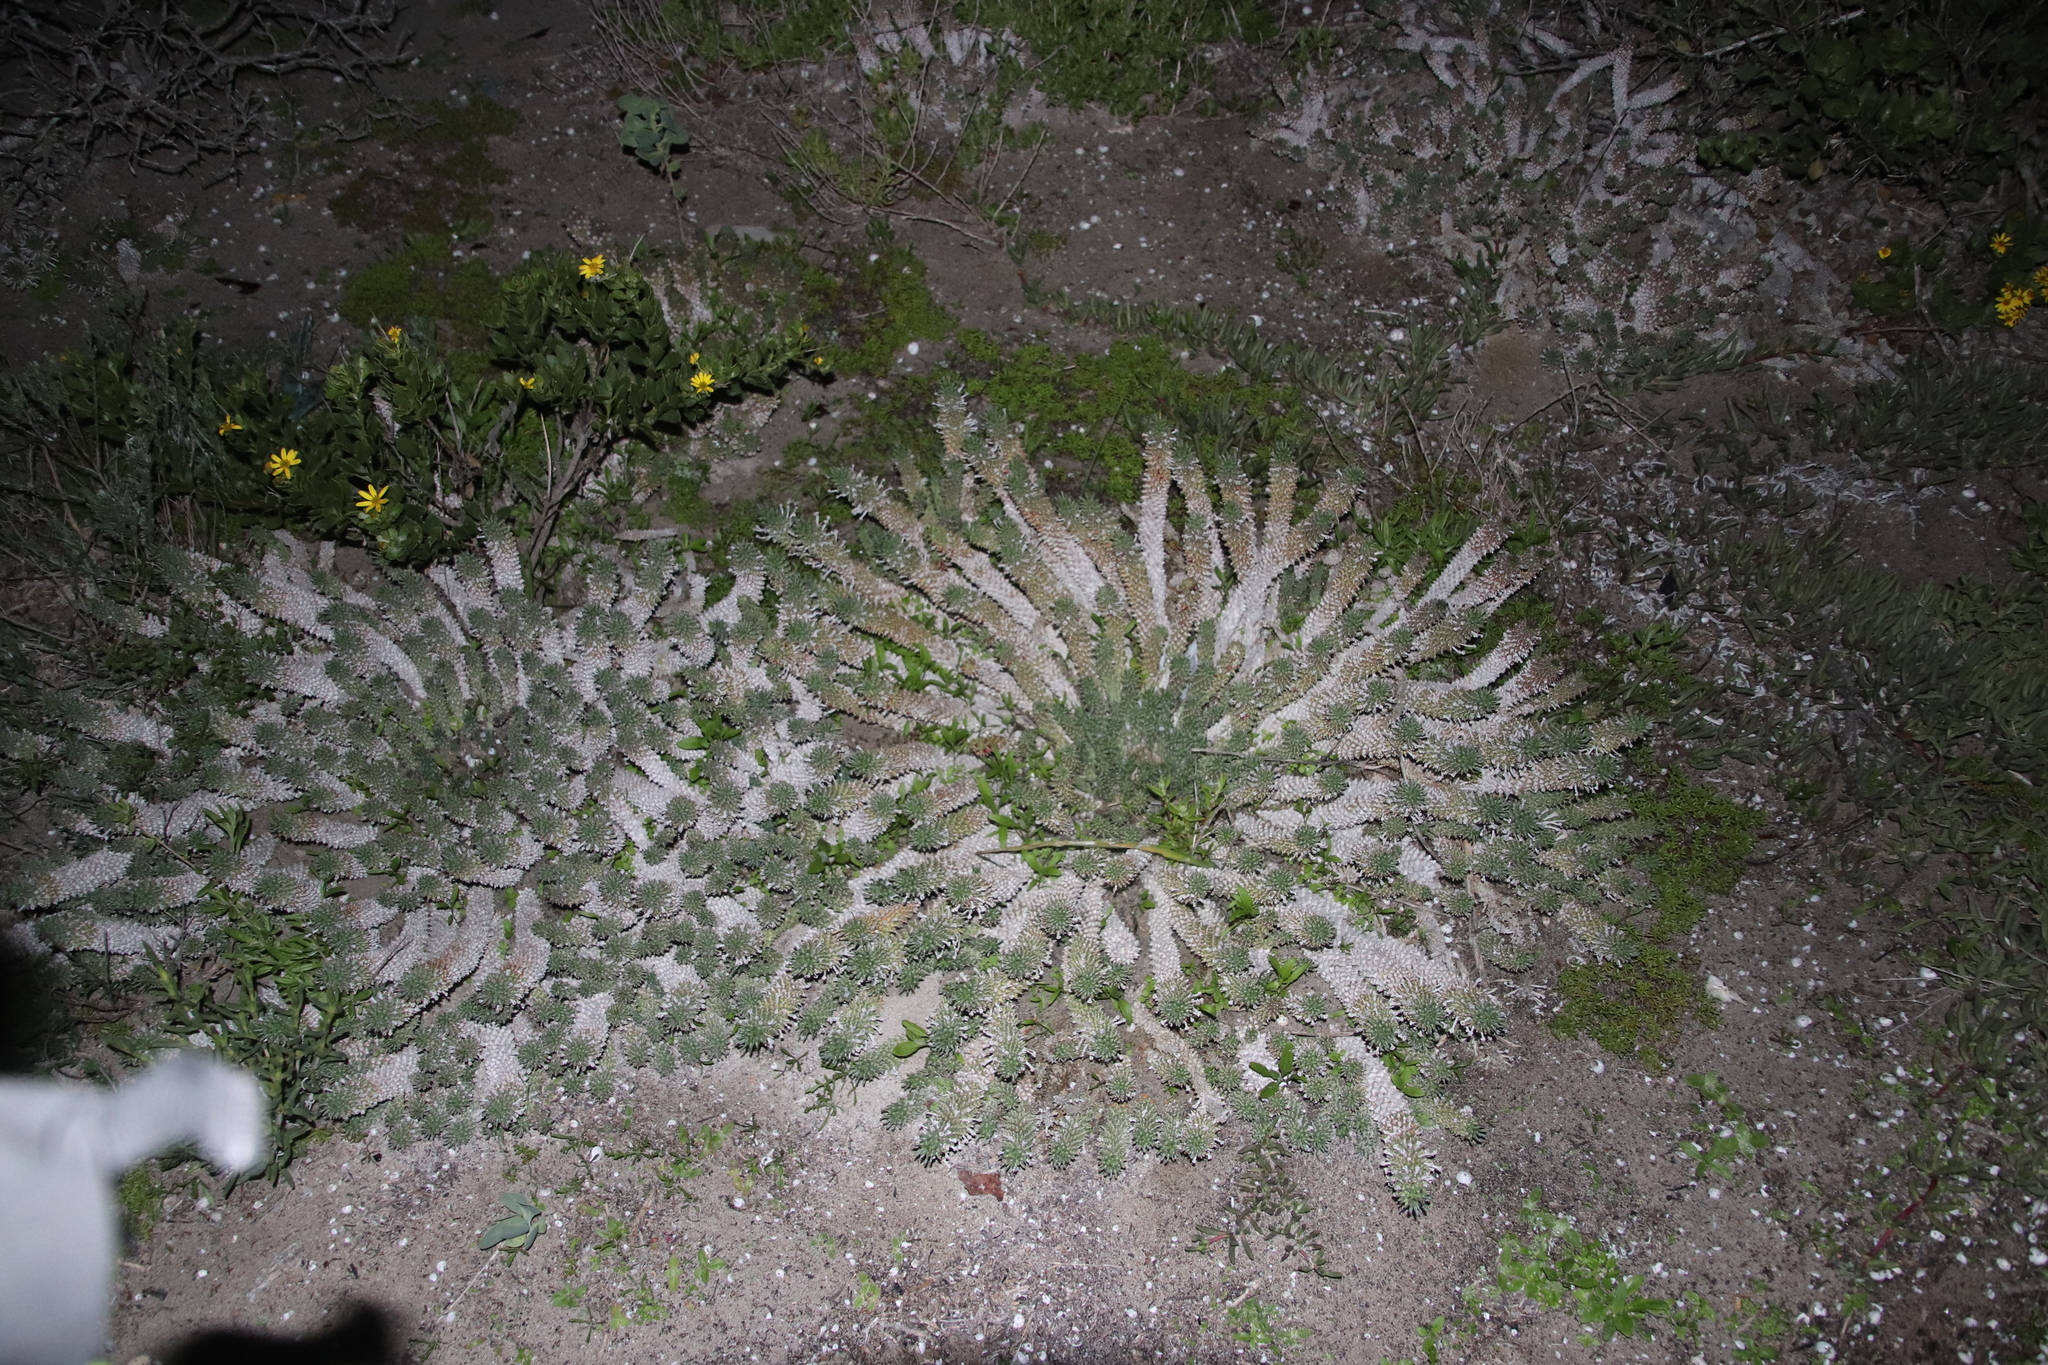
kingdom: Plantae
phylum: Tracheophyta
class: Magnoliopsida
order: Malpighiales
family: Euphorbiaceae
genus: Euphorbia
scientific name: Euphorbia caput-medusae
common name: Medusa's-head
